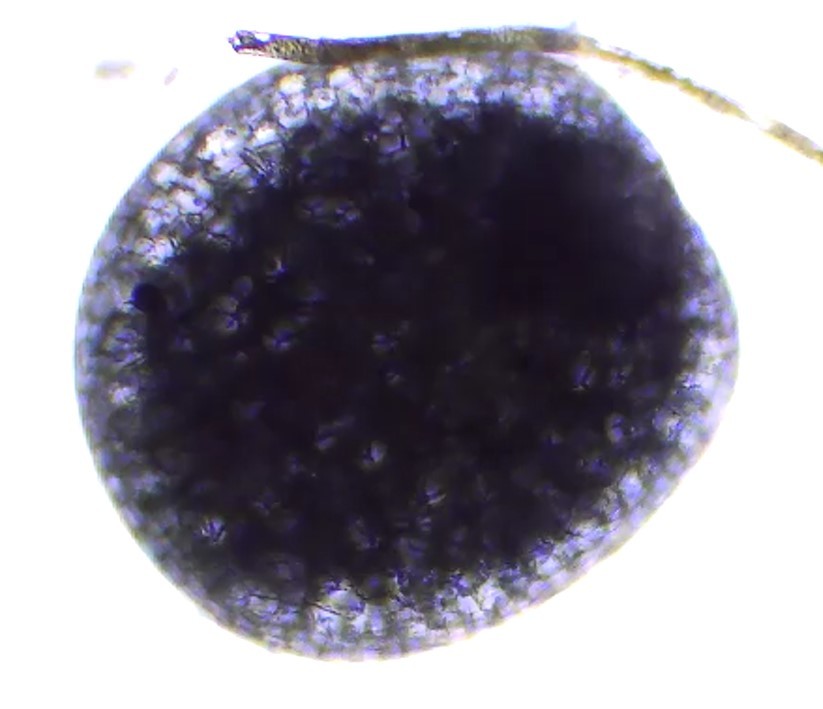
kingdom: Plantae
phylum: Tracheophyta
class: Liliopsida
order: Alismatales
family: Araceae
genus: Wolffia
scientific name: Wolffia
